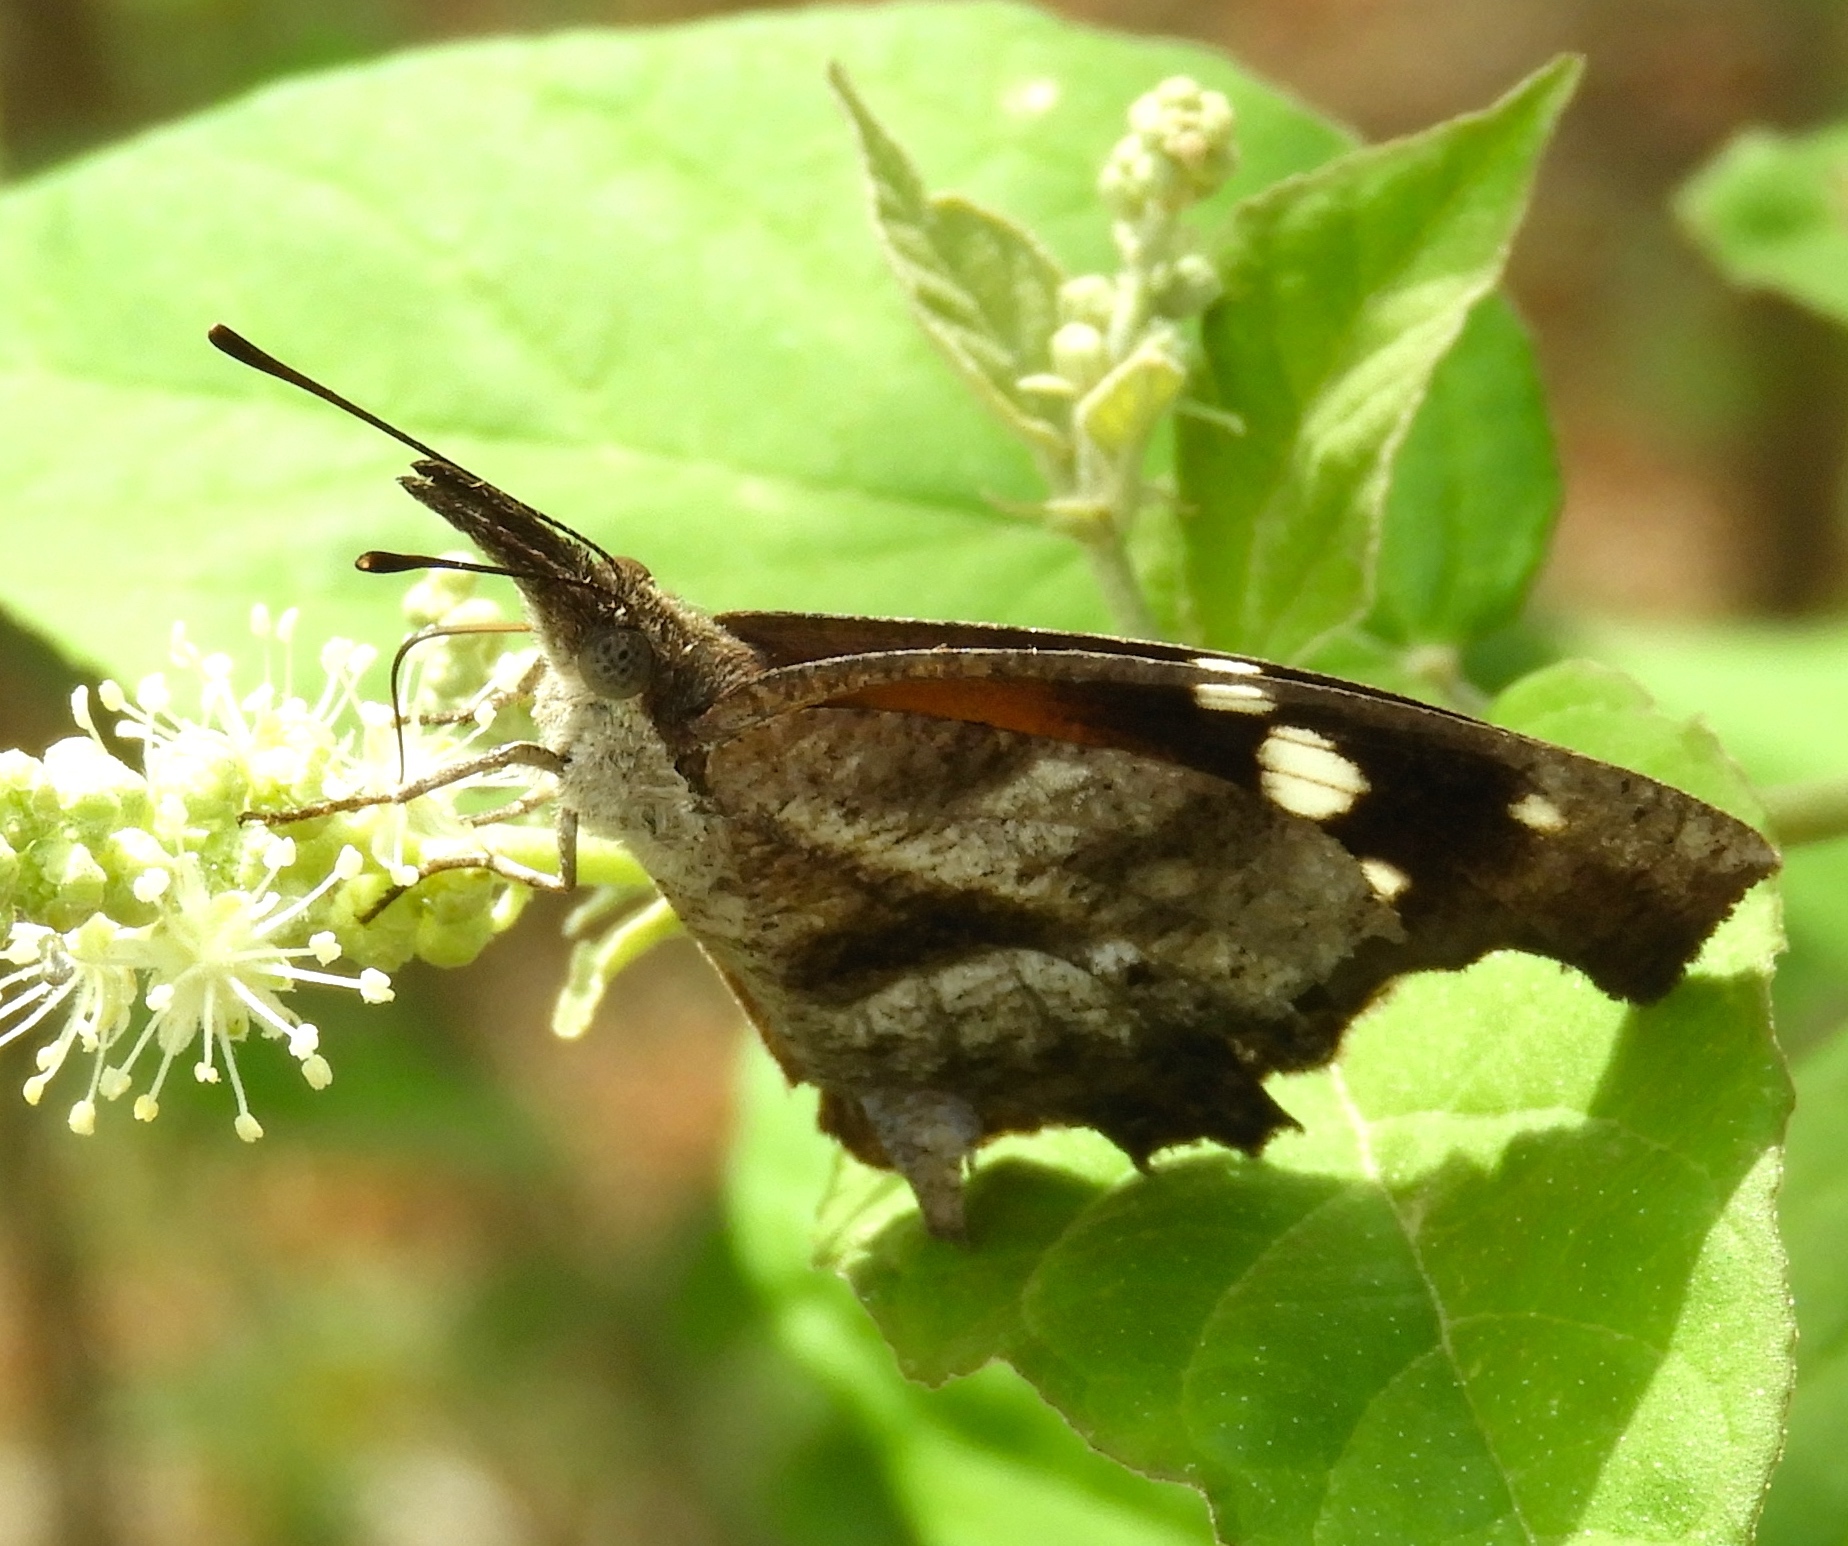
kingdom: Animalia
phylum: Arthropoda
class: Insecta
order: Lepidoptera
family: Nymphalidae
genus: Libytheana
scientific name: Libytheana carinenta
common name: American snout
